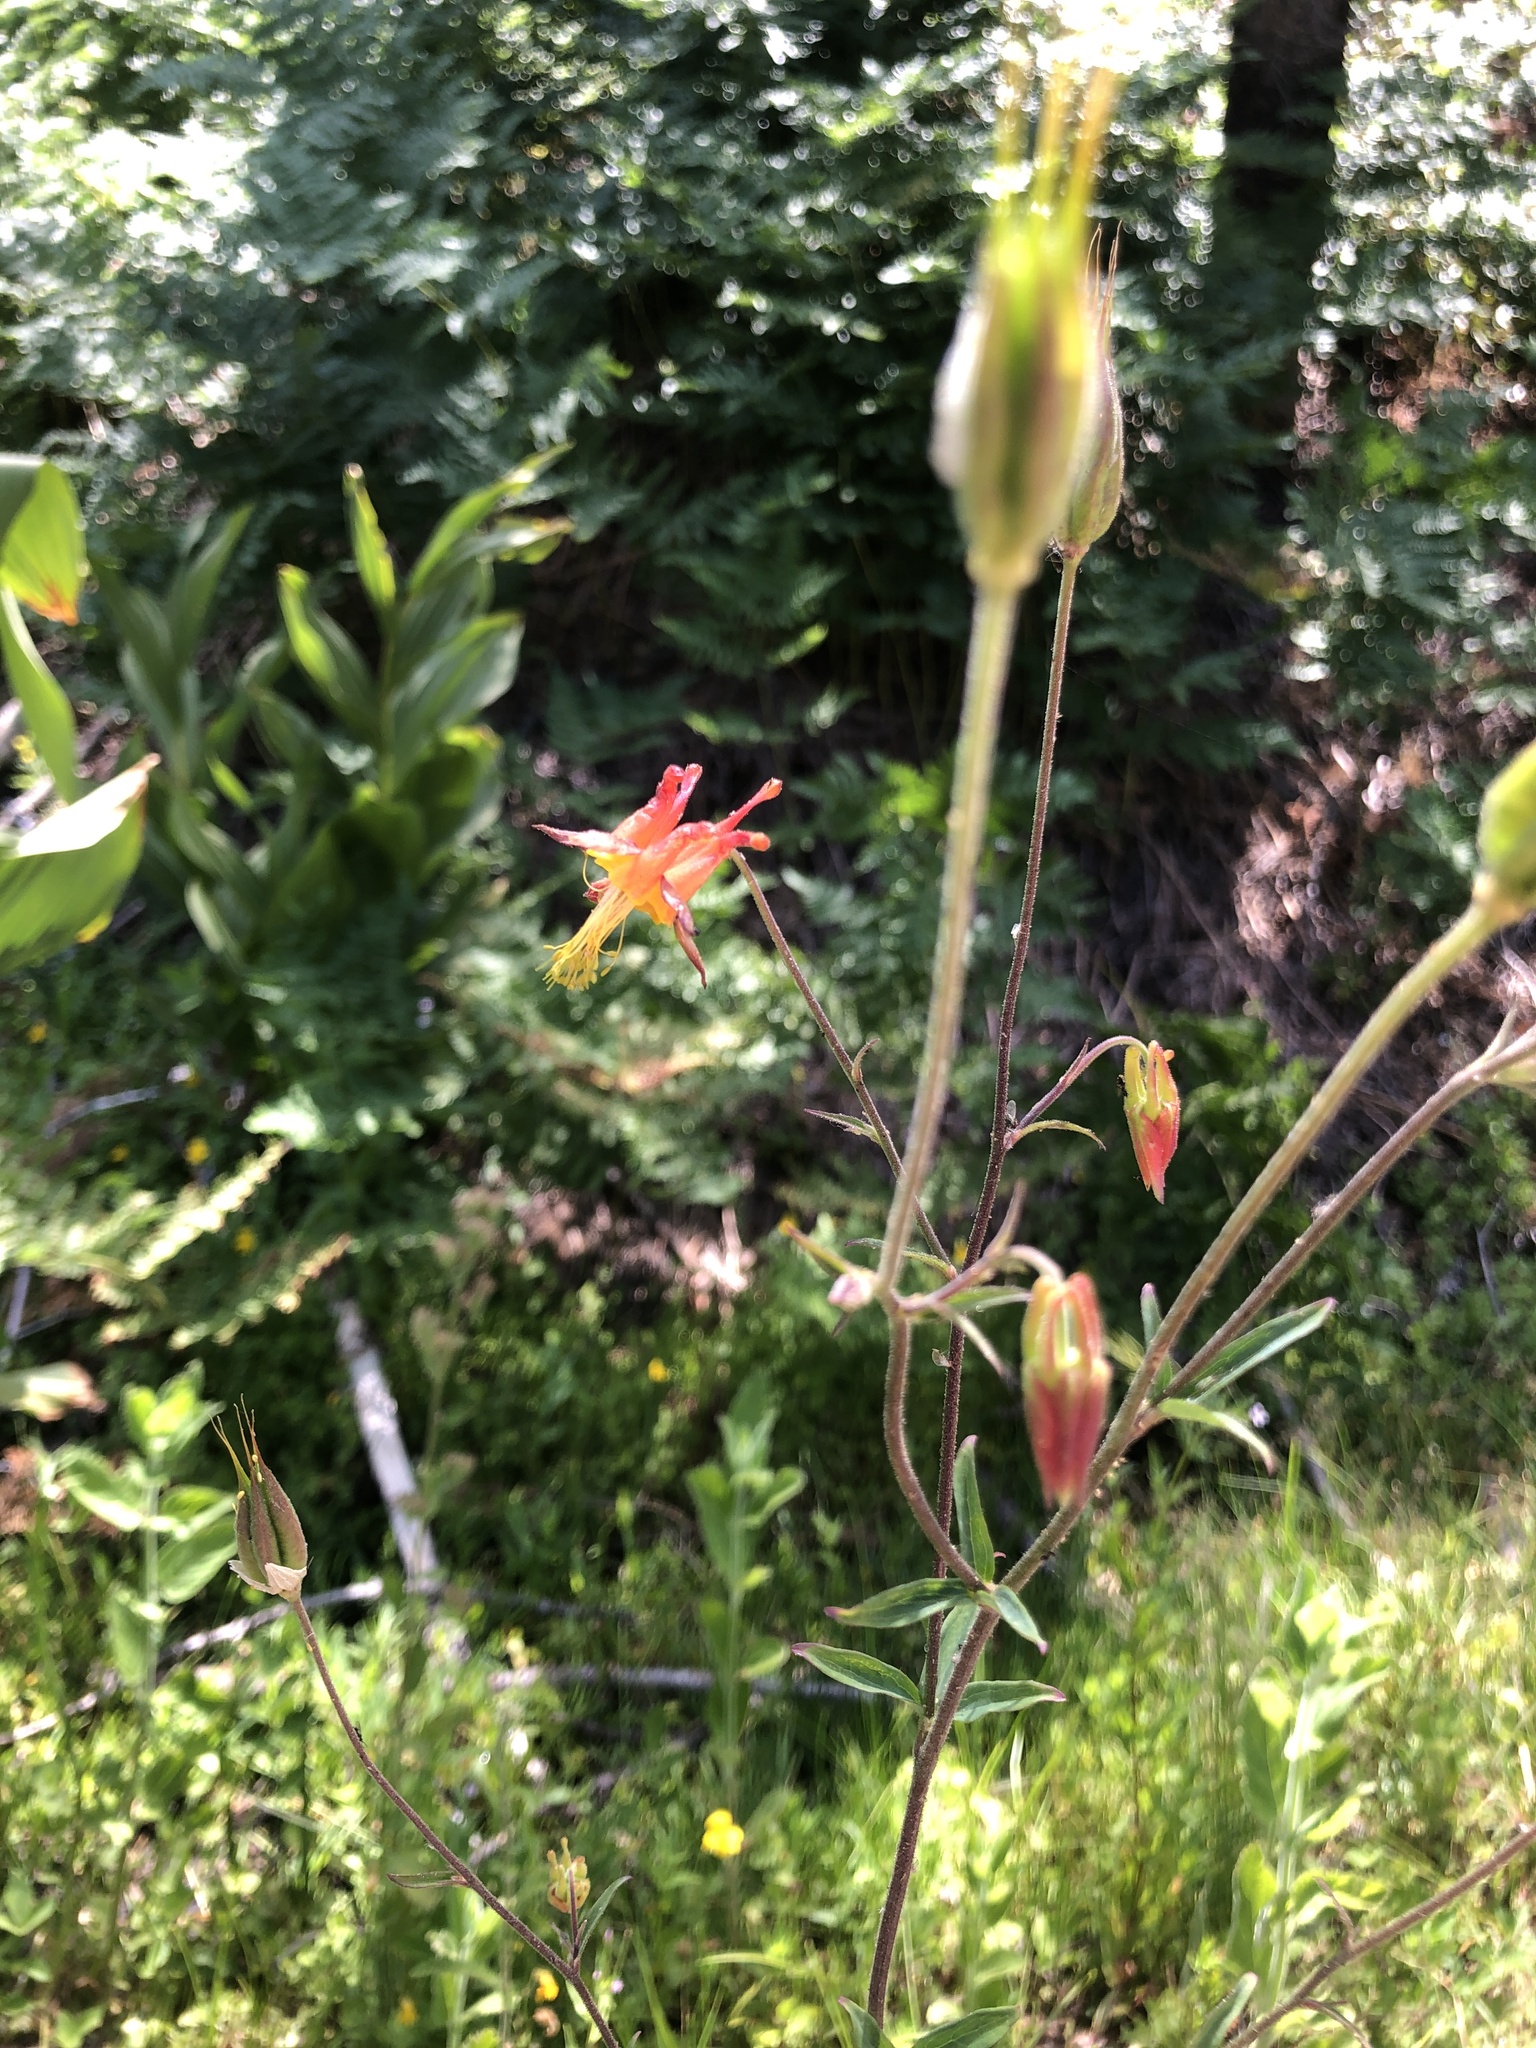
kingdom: Plantae
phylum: Tracheophyta
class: Magnoliopsida
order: Ranunculales
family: Ranunculaceae
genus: Aquilegia
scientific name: Aquilegia formosa
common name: Sitka columbine
